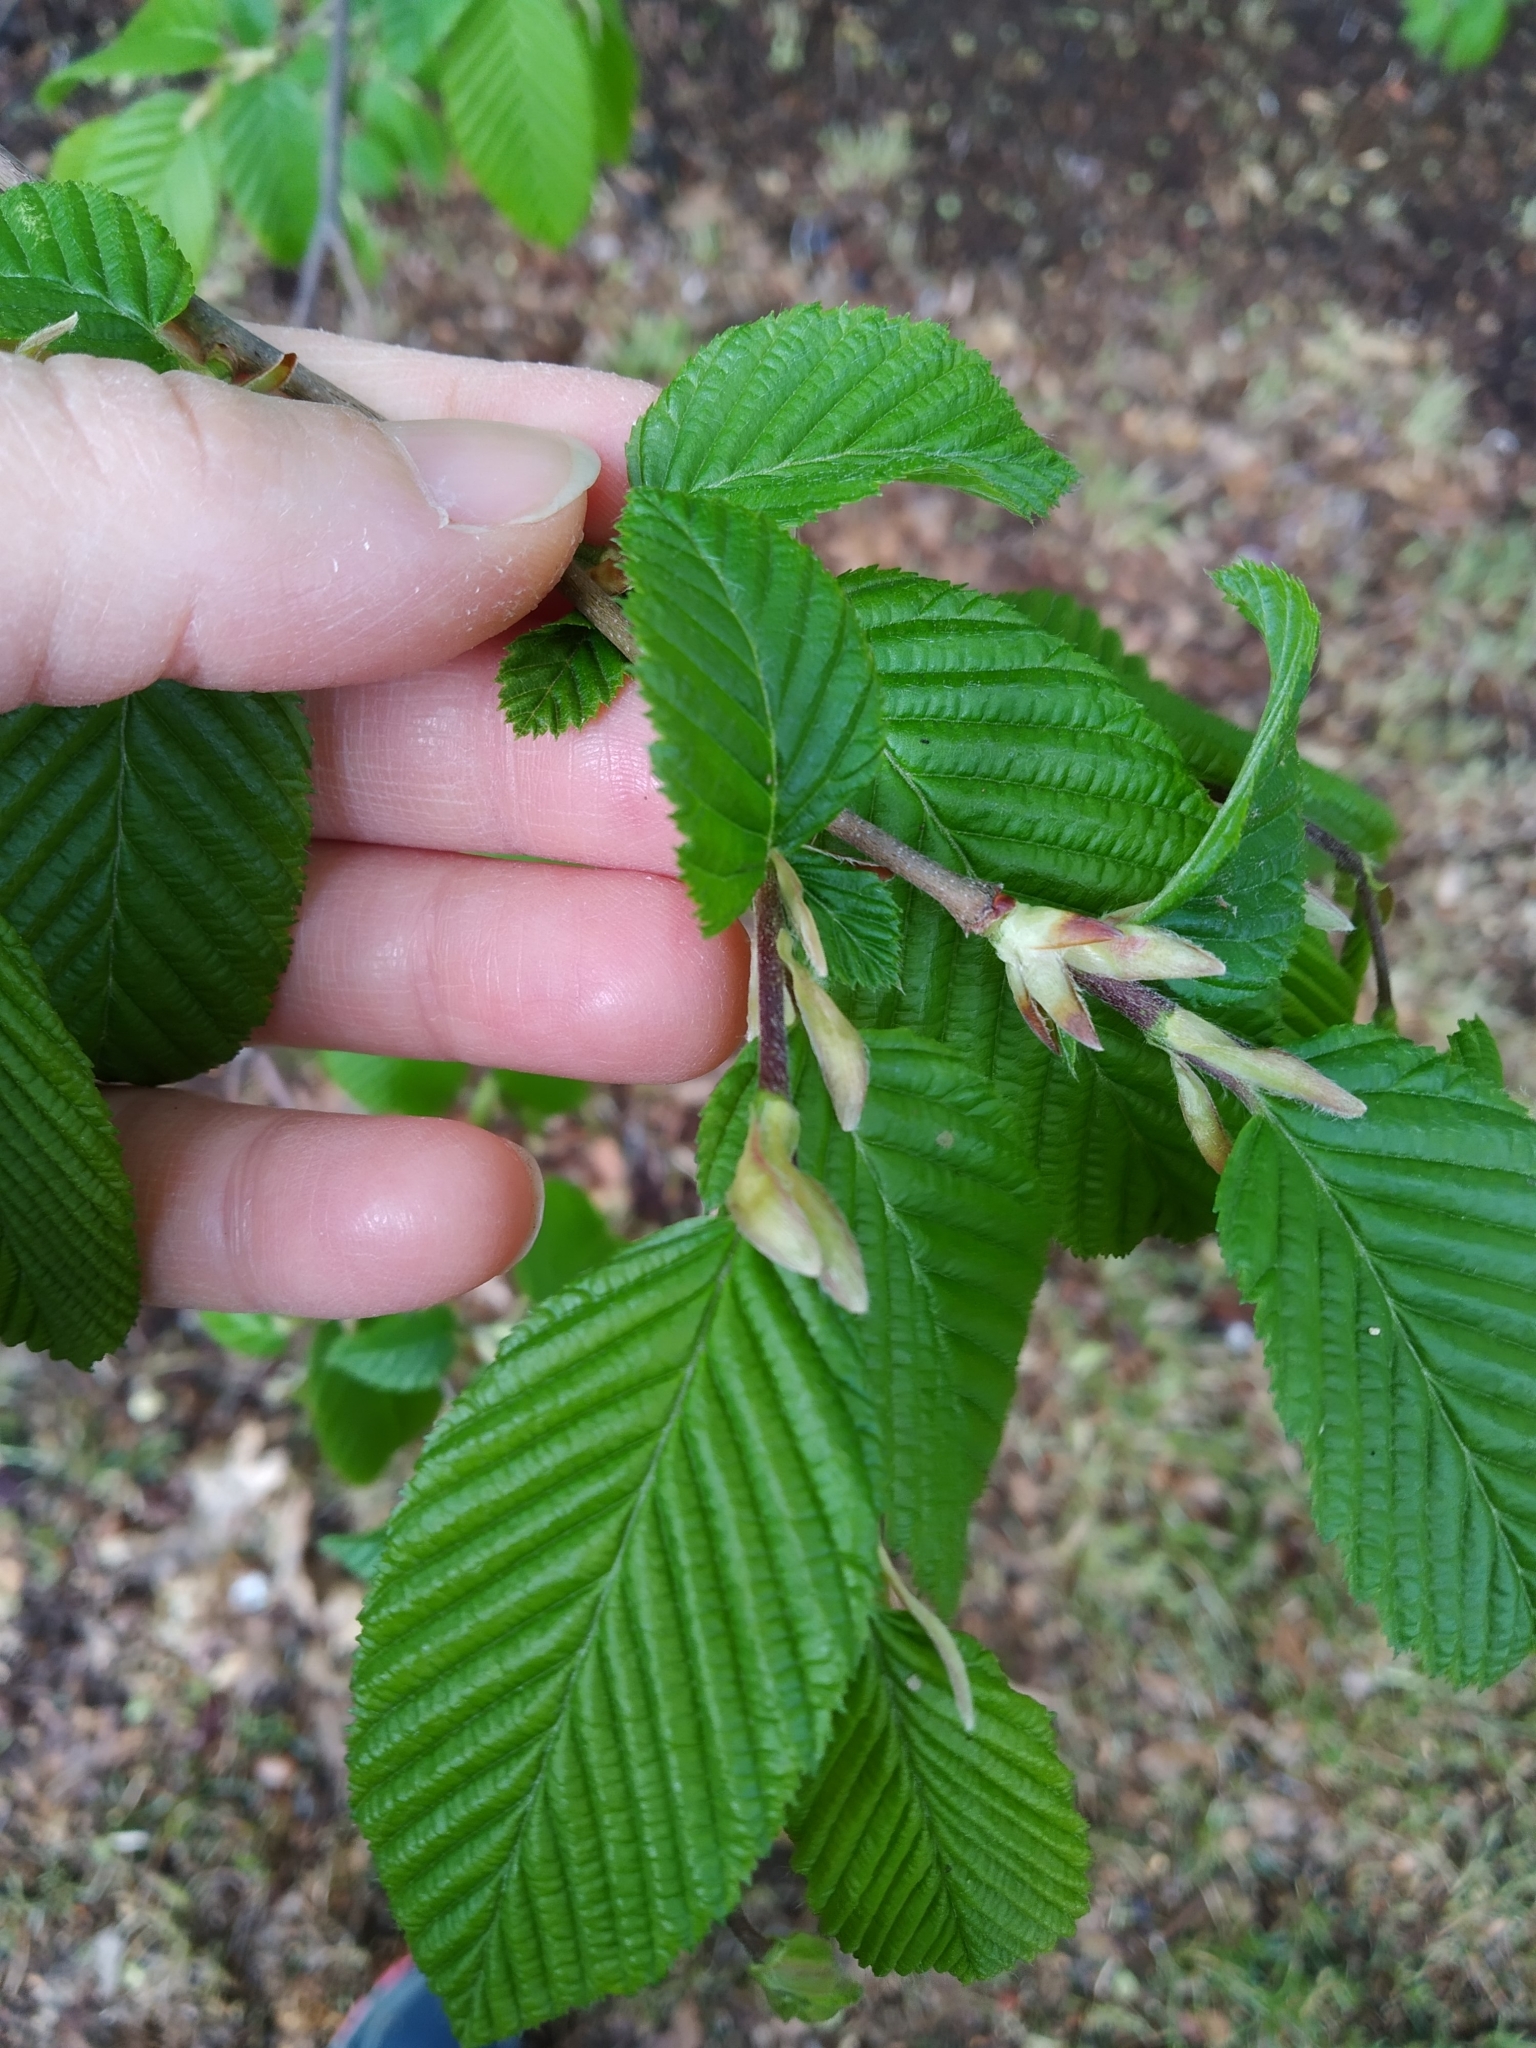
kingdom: Plantae
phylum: Tracheophyta
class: Magnoliopsida
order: Fagales
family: Betulaceae
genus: Carpinus
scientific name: Carpinus betulus
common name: Hornbeam
